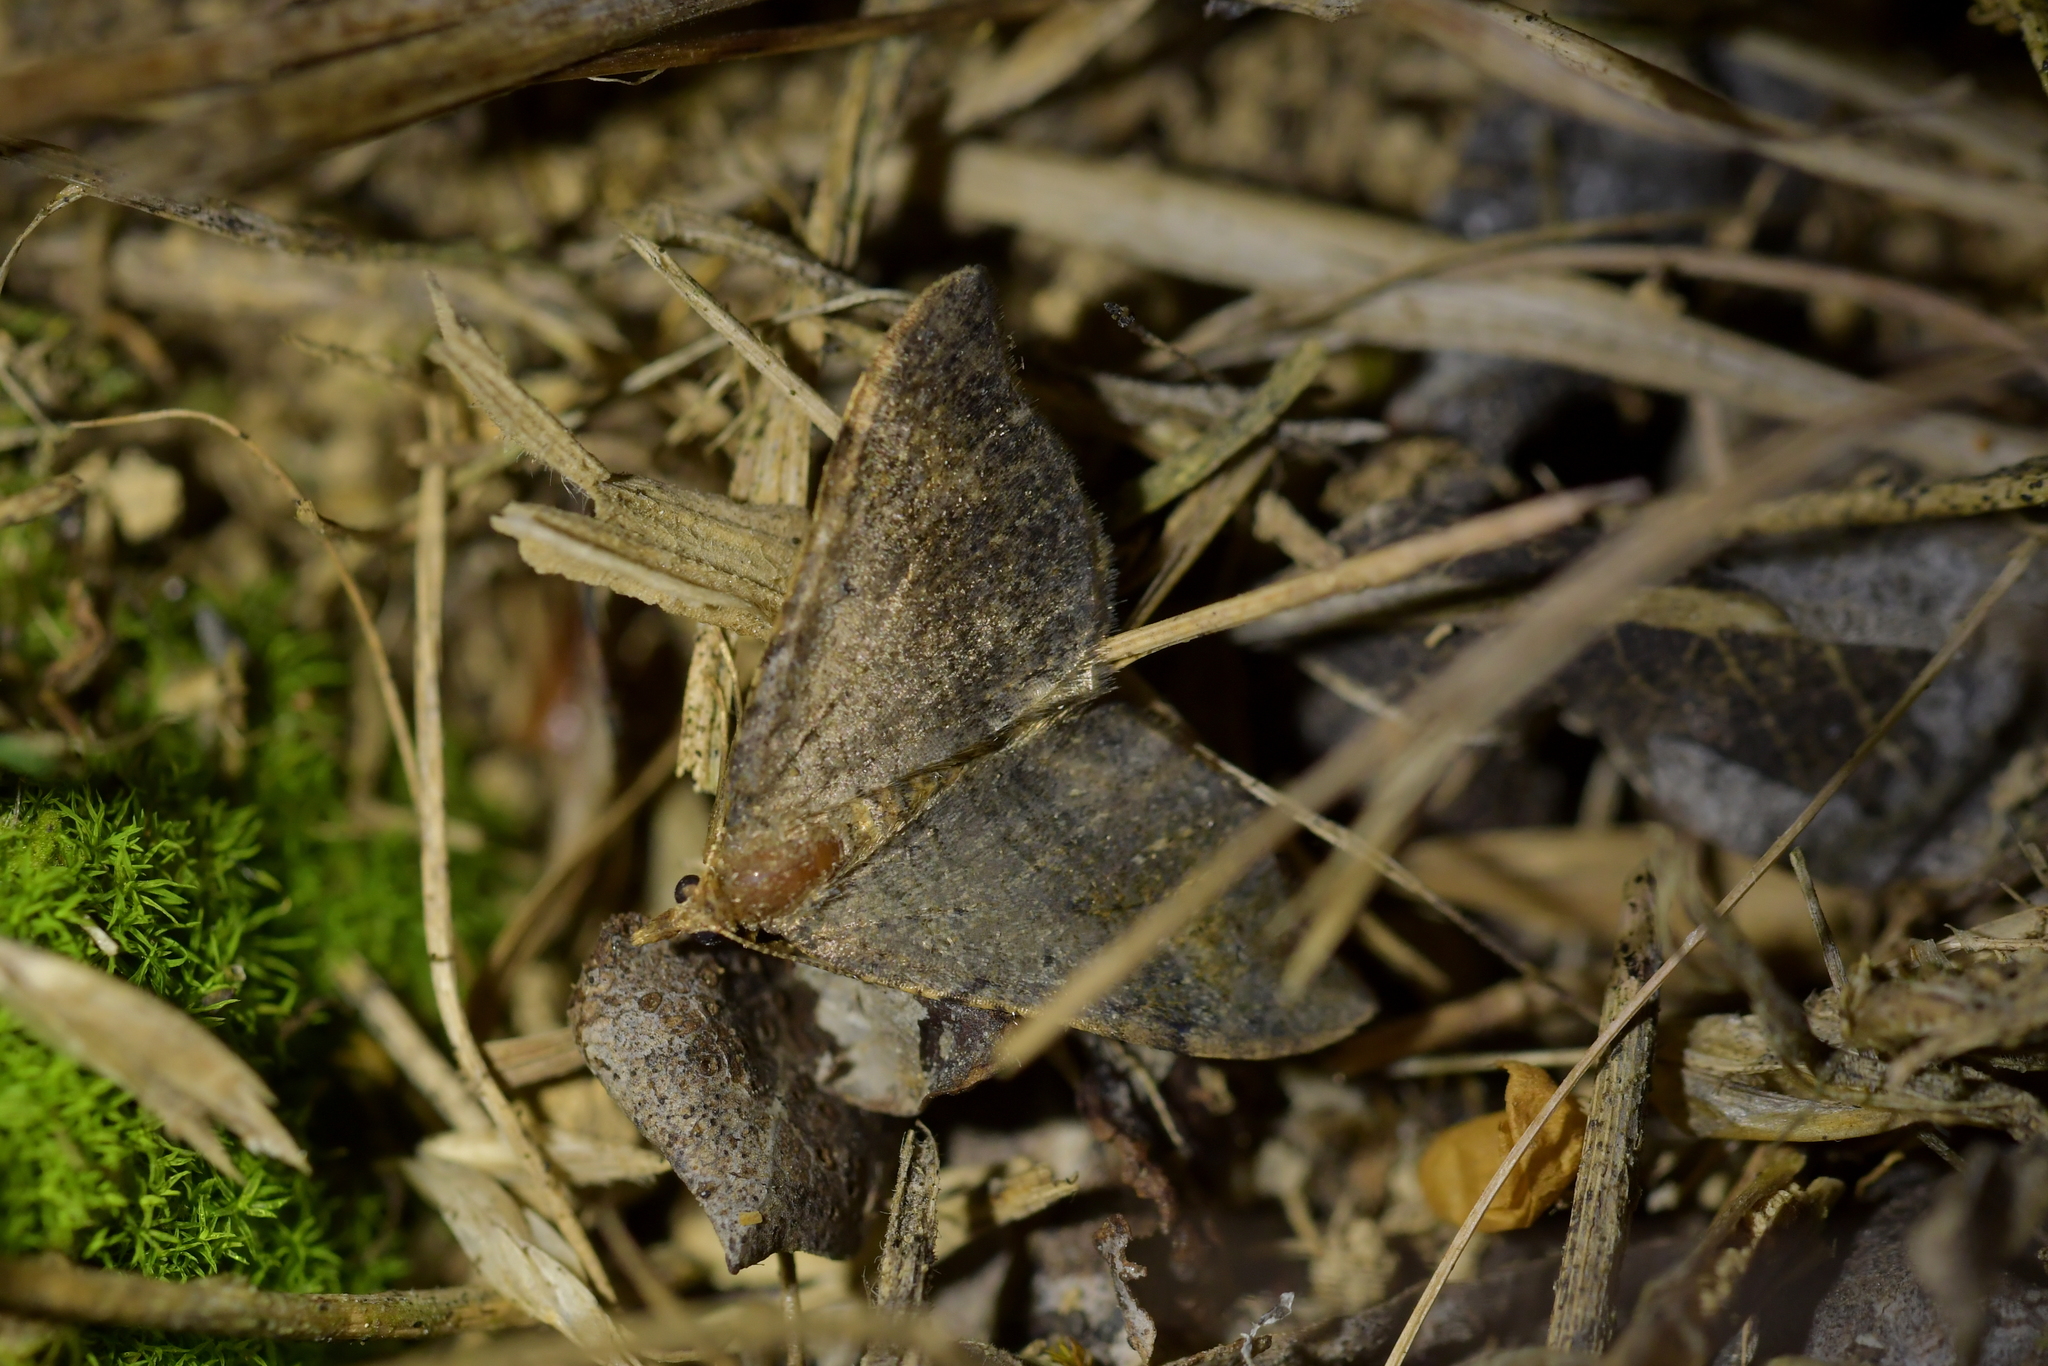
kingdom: Animalia
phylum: Arthropoda
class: Insecta
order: Lepidoptera
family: Geometridae
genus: Homodotis
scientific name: Homodotis megaspilata
